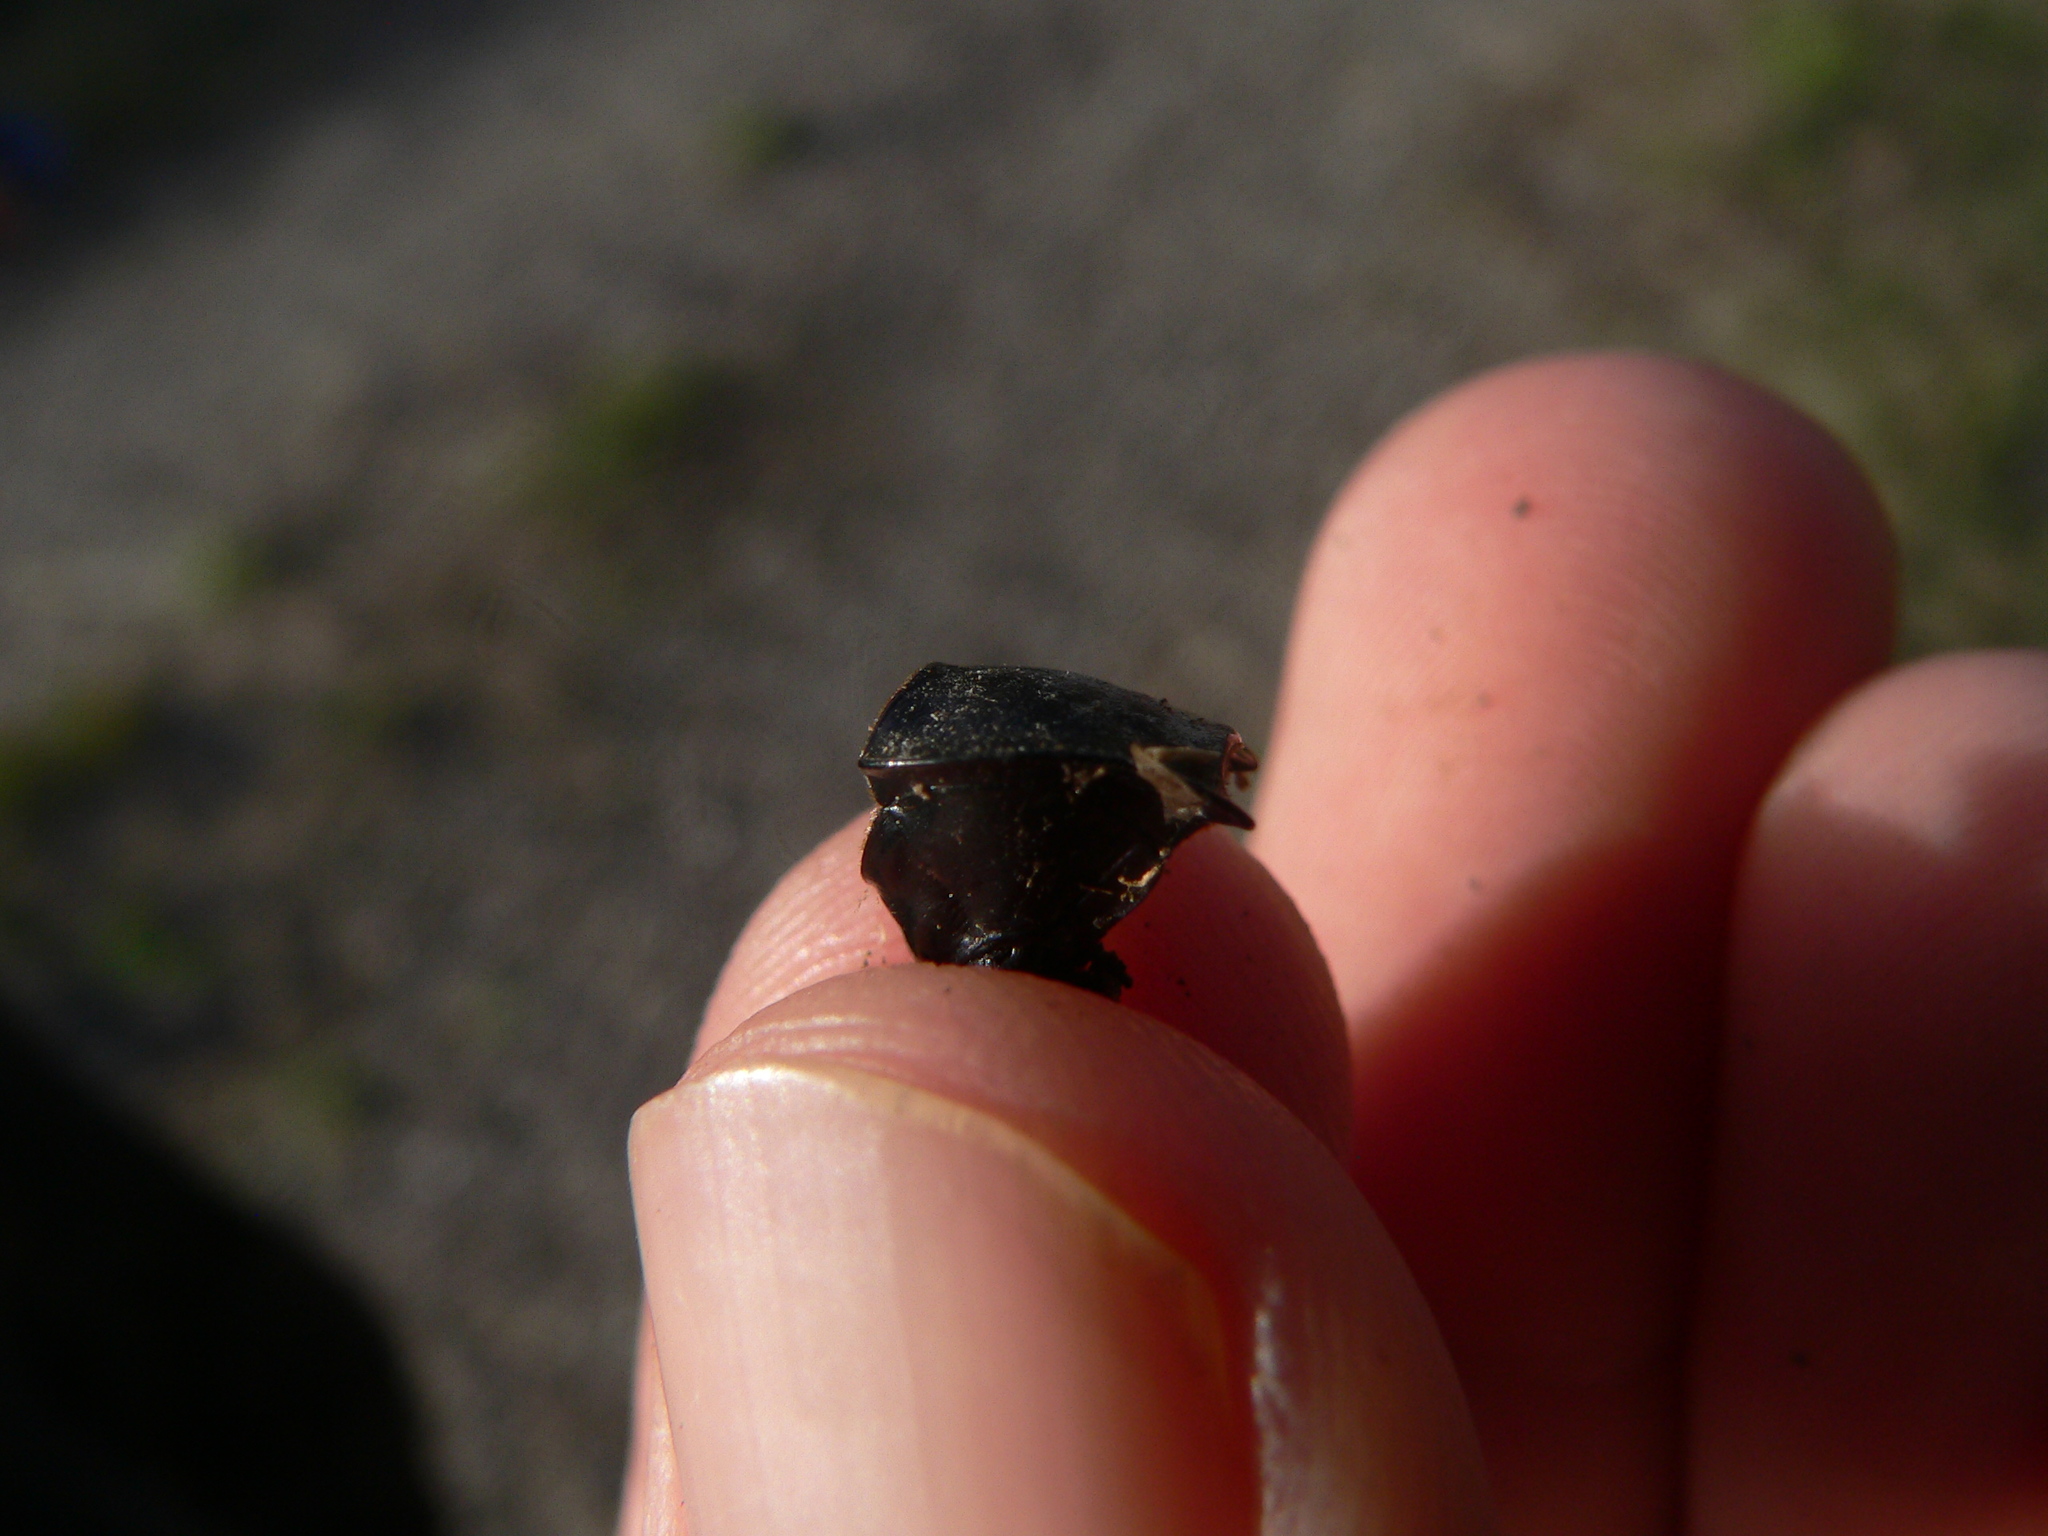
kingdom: Animalia
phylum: Arthropoda
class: Insecta
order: Coleoptera
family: Carabidae
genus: Carabus
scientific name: Carabus purpurascens
